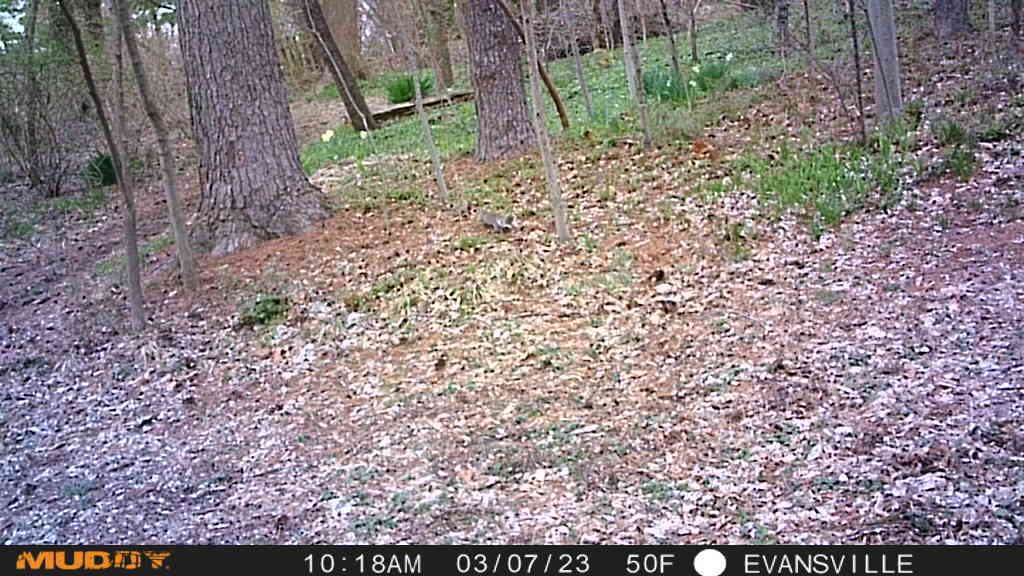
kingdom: Animalia
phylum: Chordata
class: Mammalia
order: Rodentia
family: Sciuridae
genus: Sciurus
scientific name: Sciurus carolinensis
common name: Eastern gray squirrel
